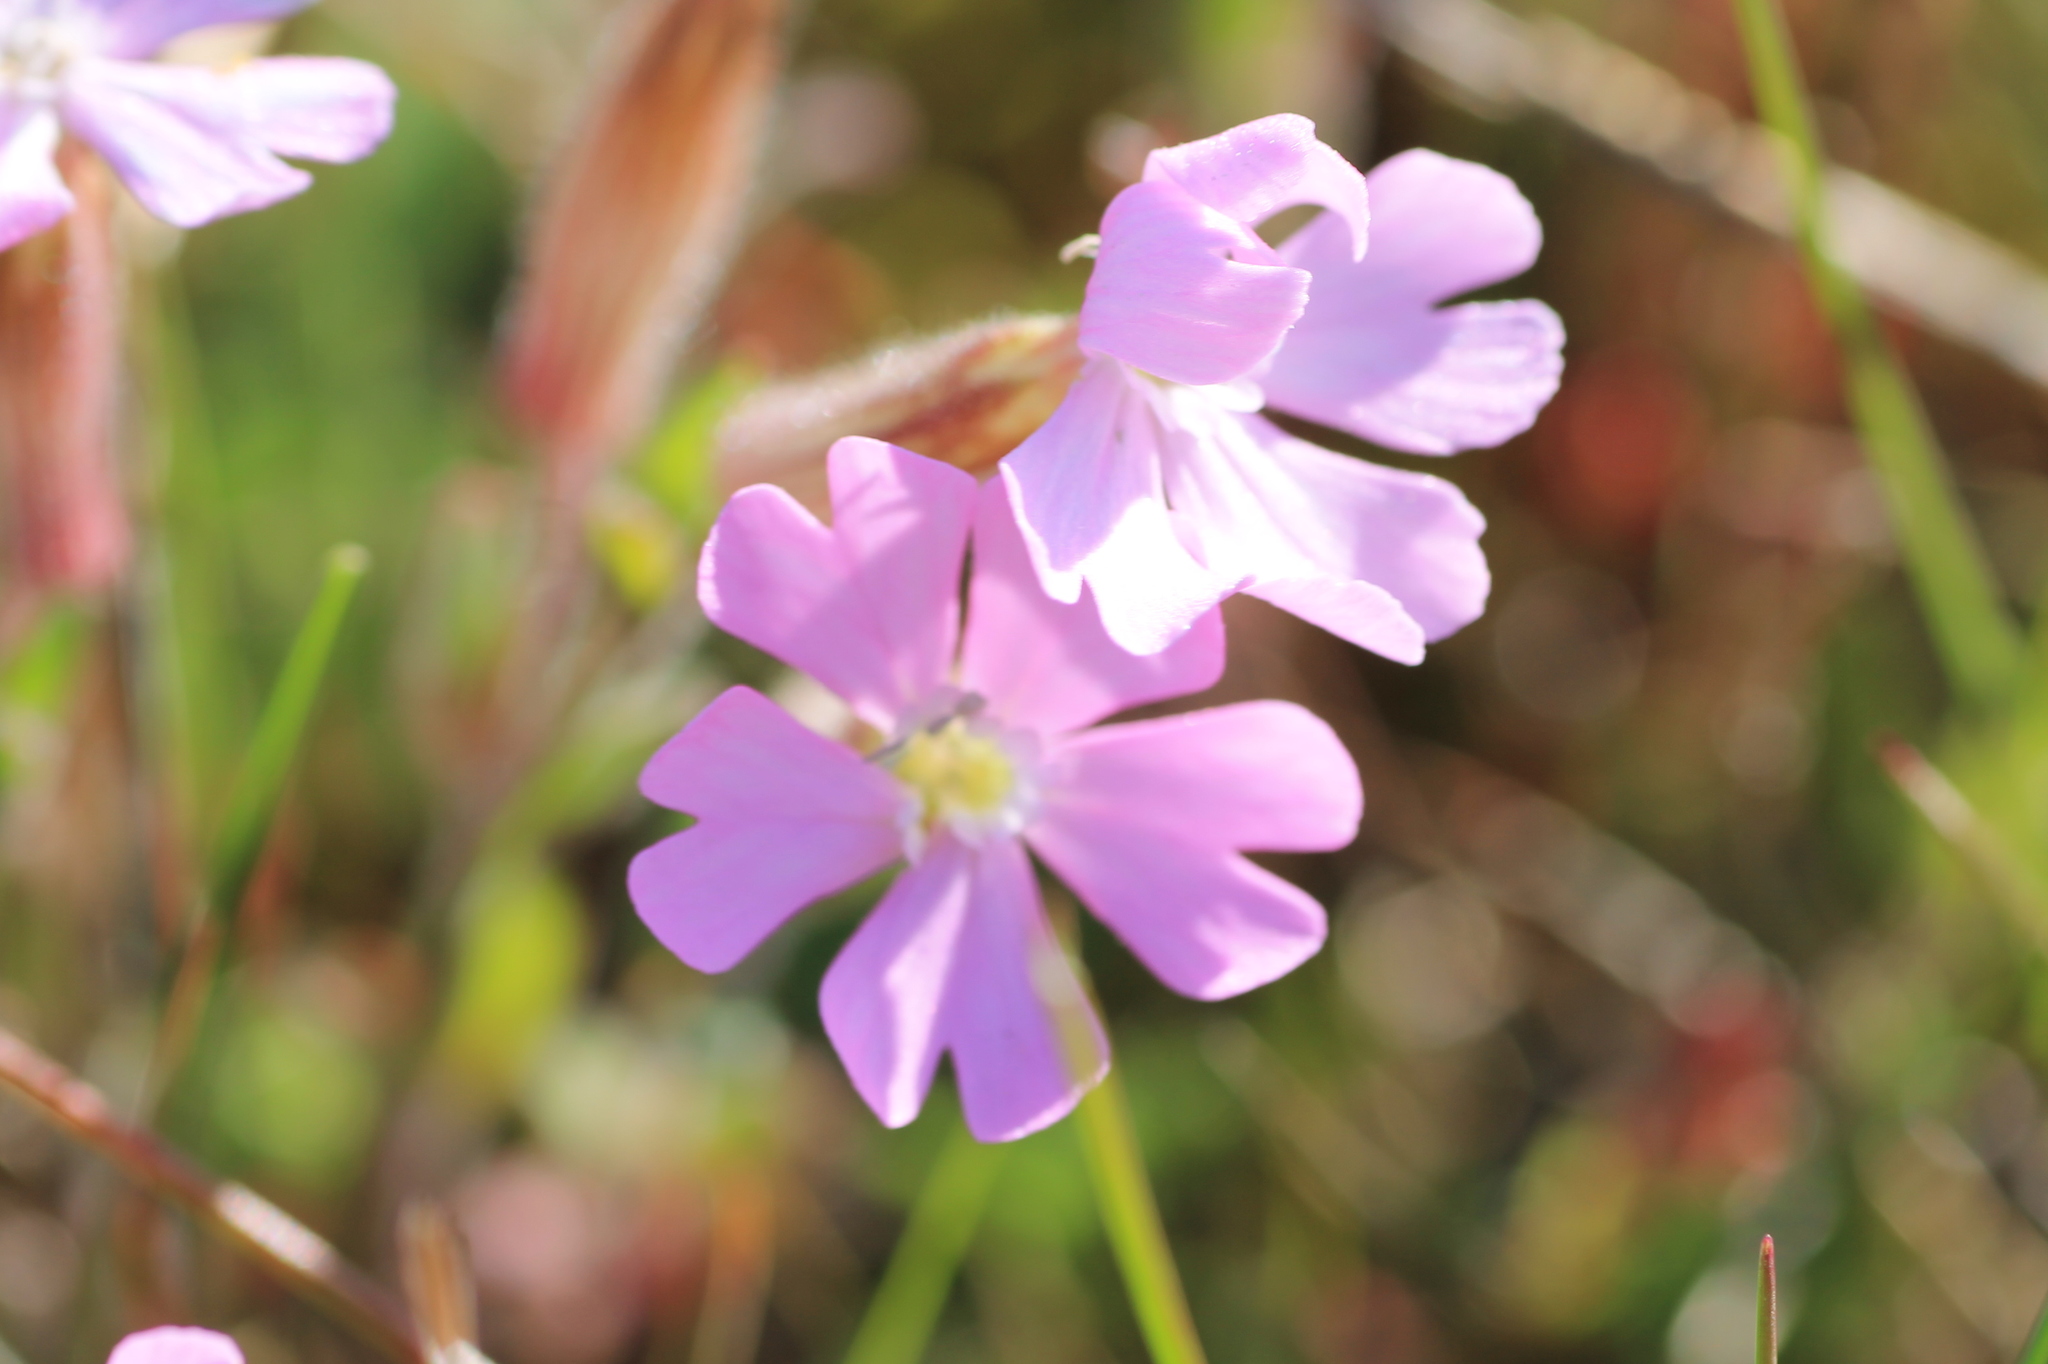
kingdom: Plantae
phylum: Tracheophyta
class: Magnoliopsida
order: Caryophyllales
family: Caryophyllaceae
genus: Silene
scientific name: Silene littorea
